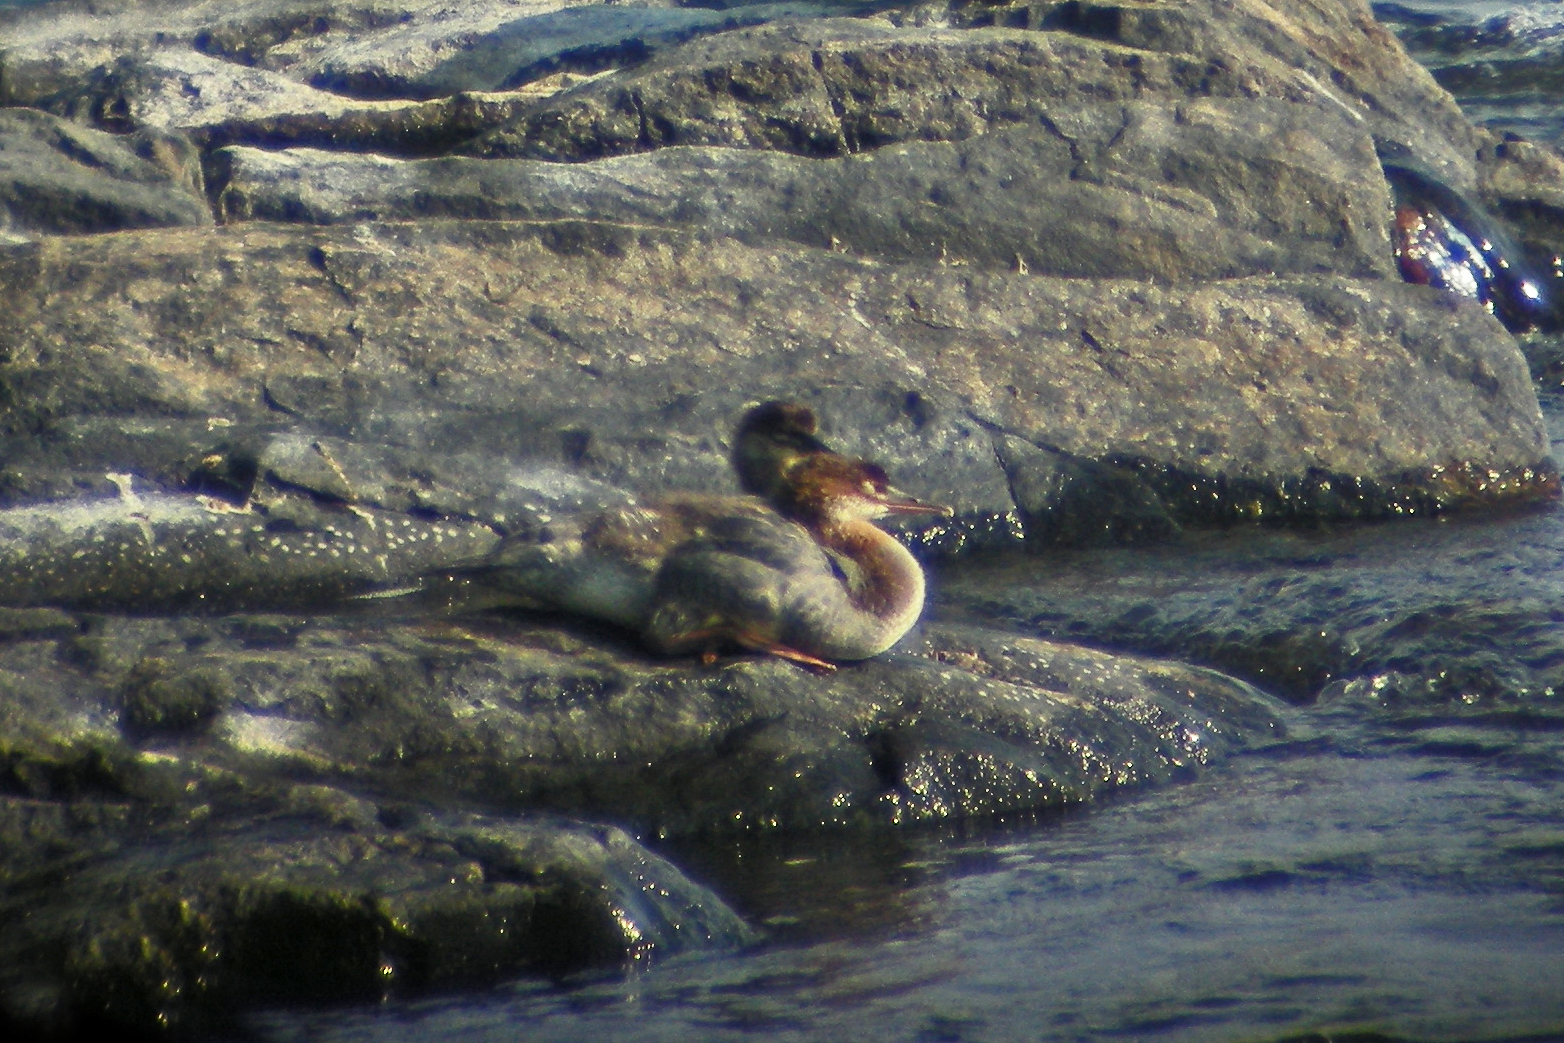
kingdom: Animalia
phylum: Chordata
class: Aves
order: Anseriformes
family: Anatidae
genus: Mergus
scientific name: Mergus merganser
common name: Common merganser
